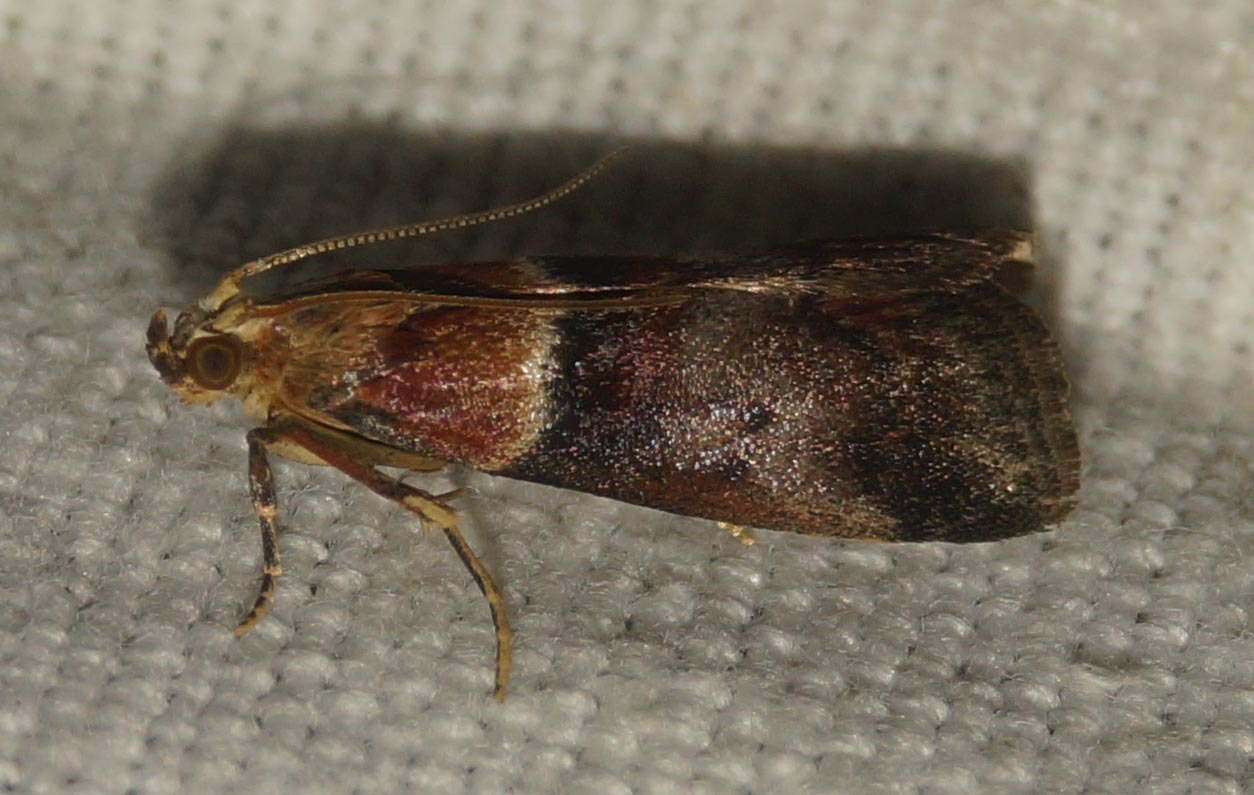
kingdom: Animalia
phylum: Arthropoda
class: Insecta
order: Lepidoptera
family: Pyralidae
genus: Acrobasis
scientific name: Acrobasis repandana
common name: Warted knot-horn
